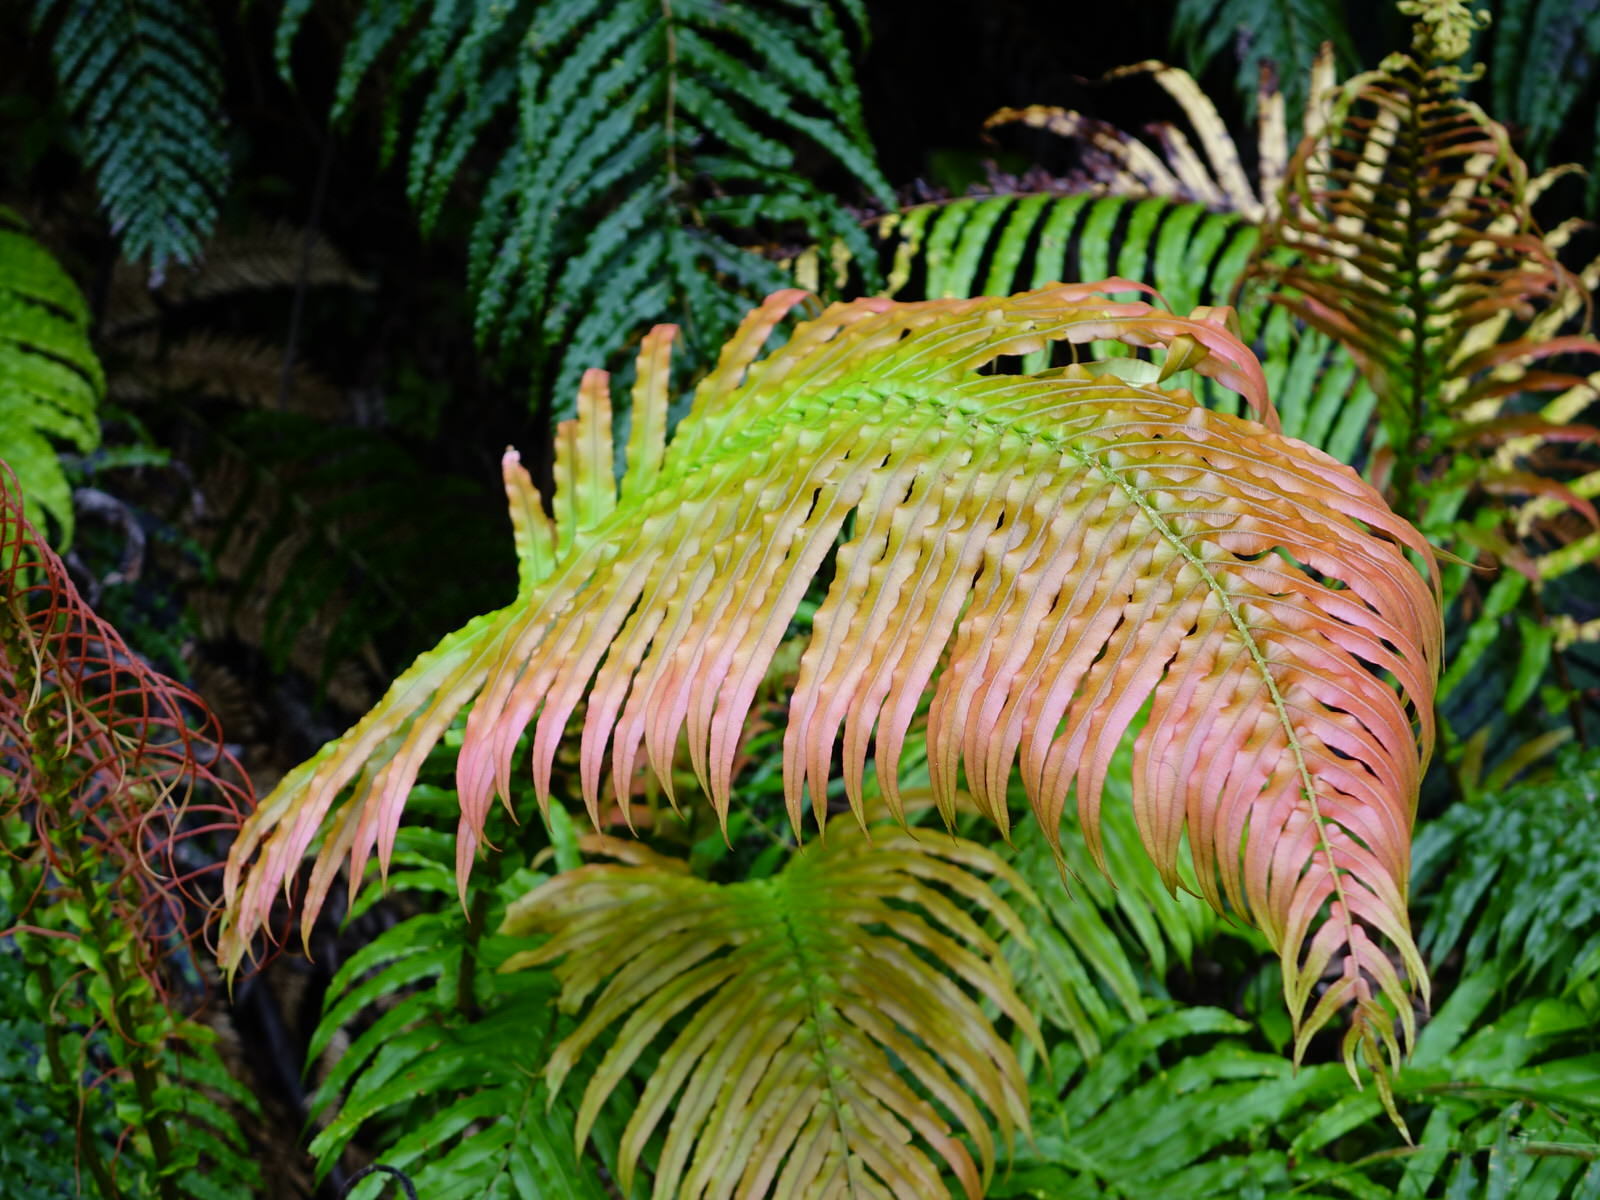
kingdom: Plantae
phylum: Tracheophyta
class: Polypodiopsida
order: Polypodiales
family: Blechnaceae
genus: Parablechnum
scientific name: Parablechnum novae-zelandiae
